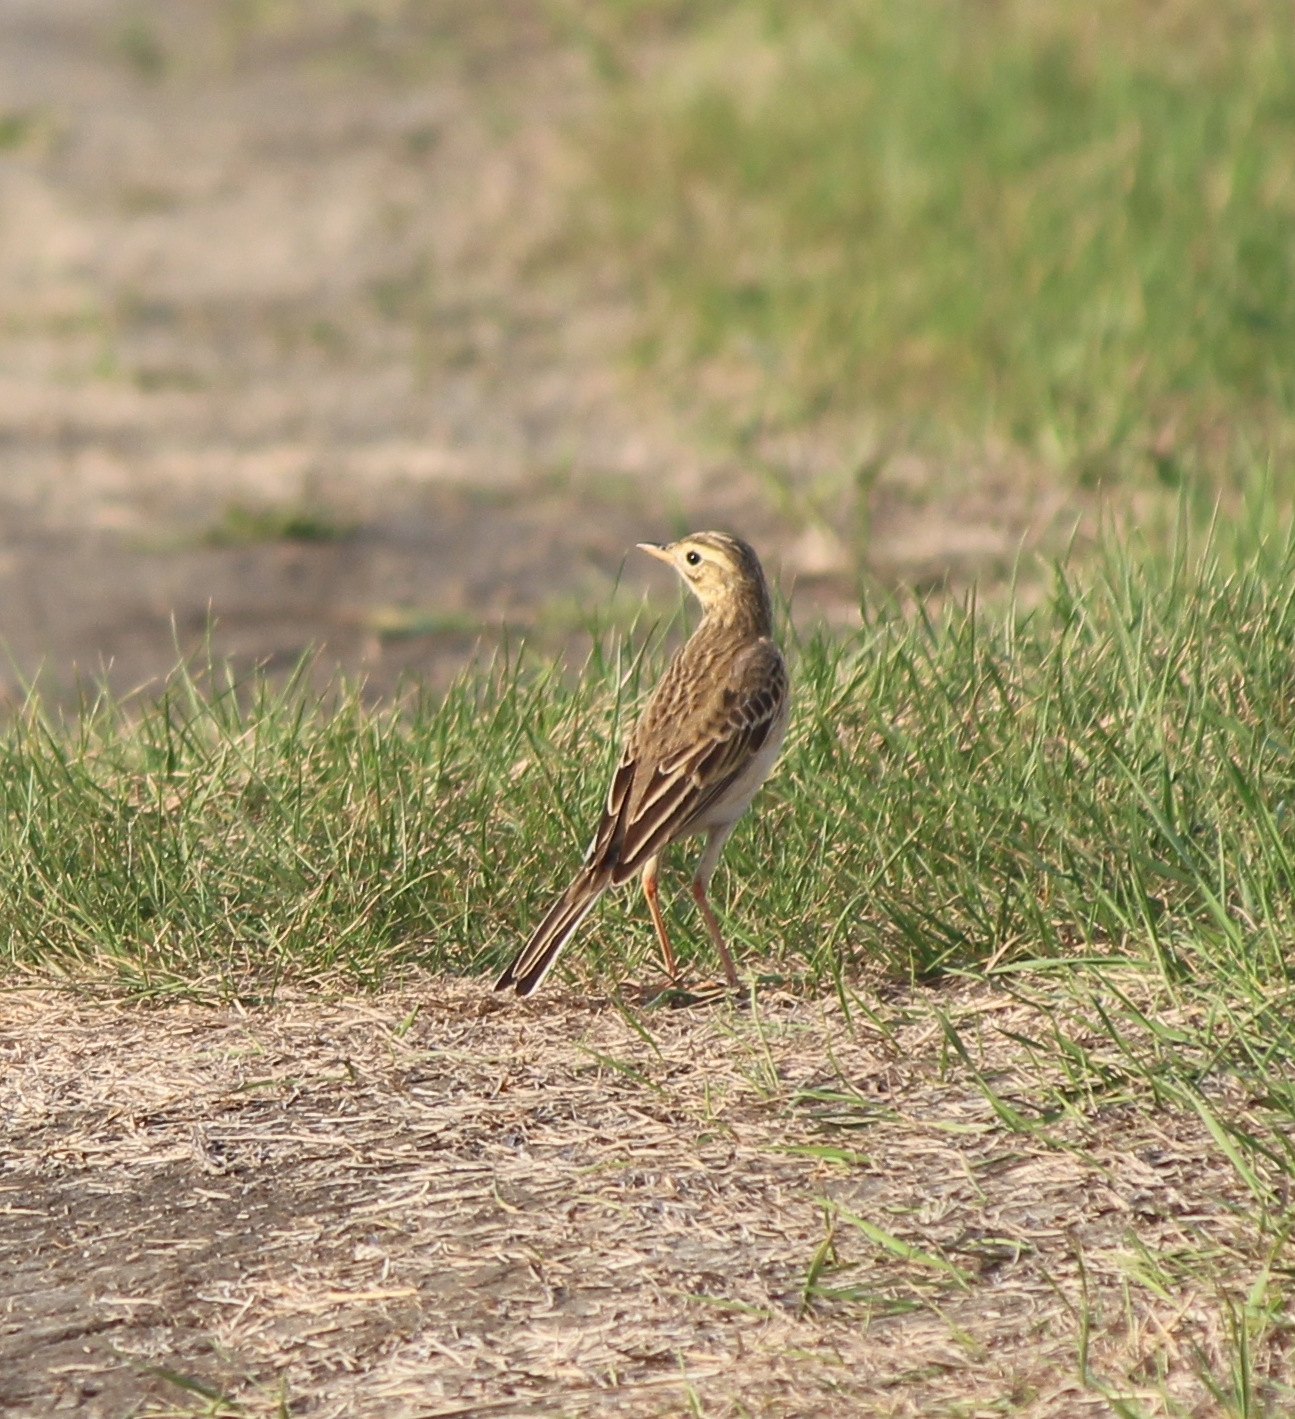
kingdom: Animalia
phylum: Chordata
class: Aves
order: Passeriformes
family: Motacillidae
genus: Anthus
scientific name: Anthus richardi
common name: Richard's pipit
